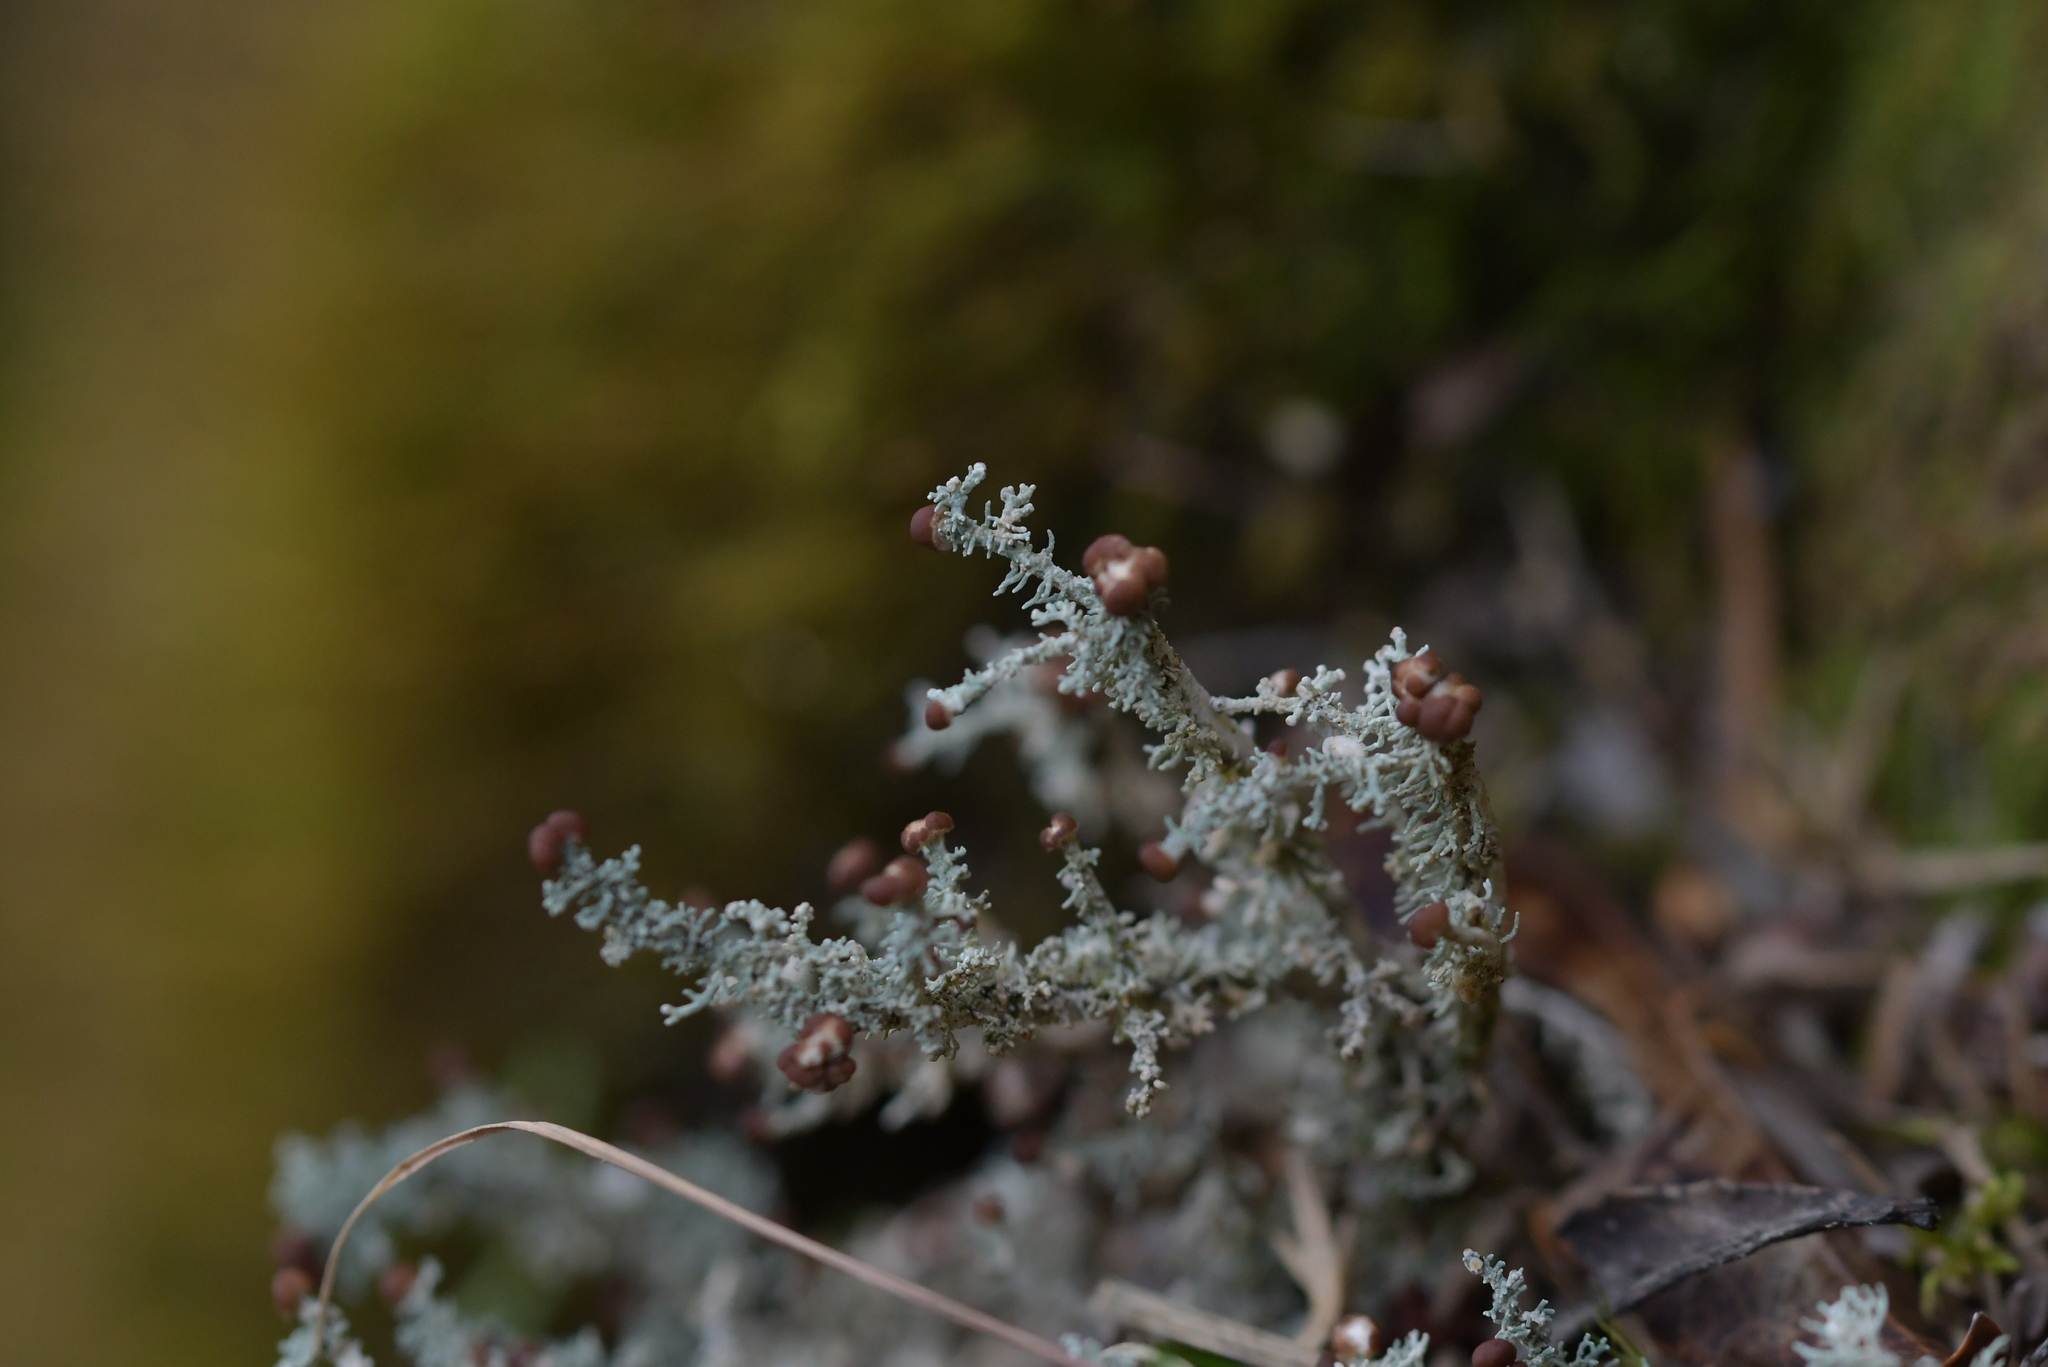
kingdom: Fungi
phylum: Ascomycota
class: Lecanoromycetes
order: Lecanorales
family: Stereocaulaceae
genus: Stereocaulon
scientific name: Stereocaulon ramulosum
